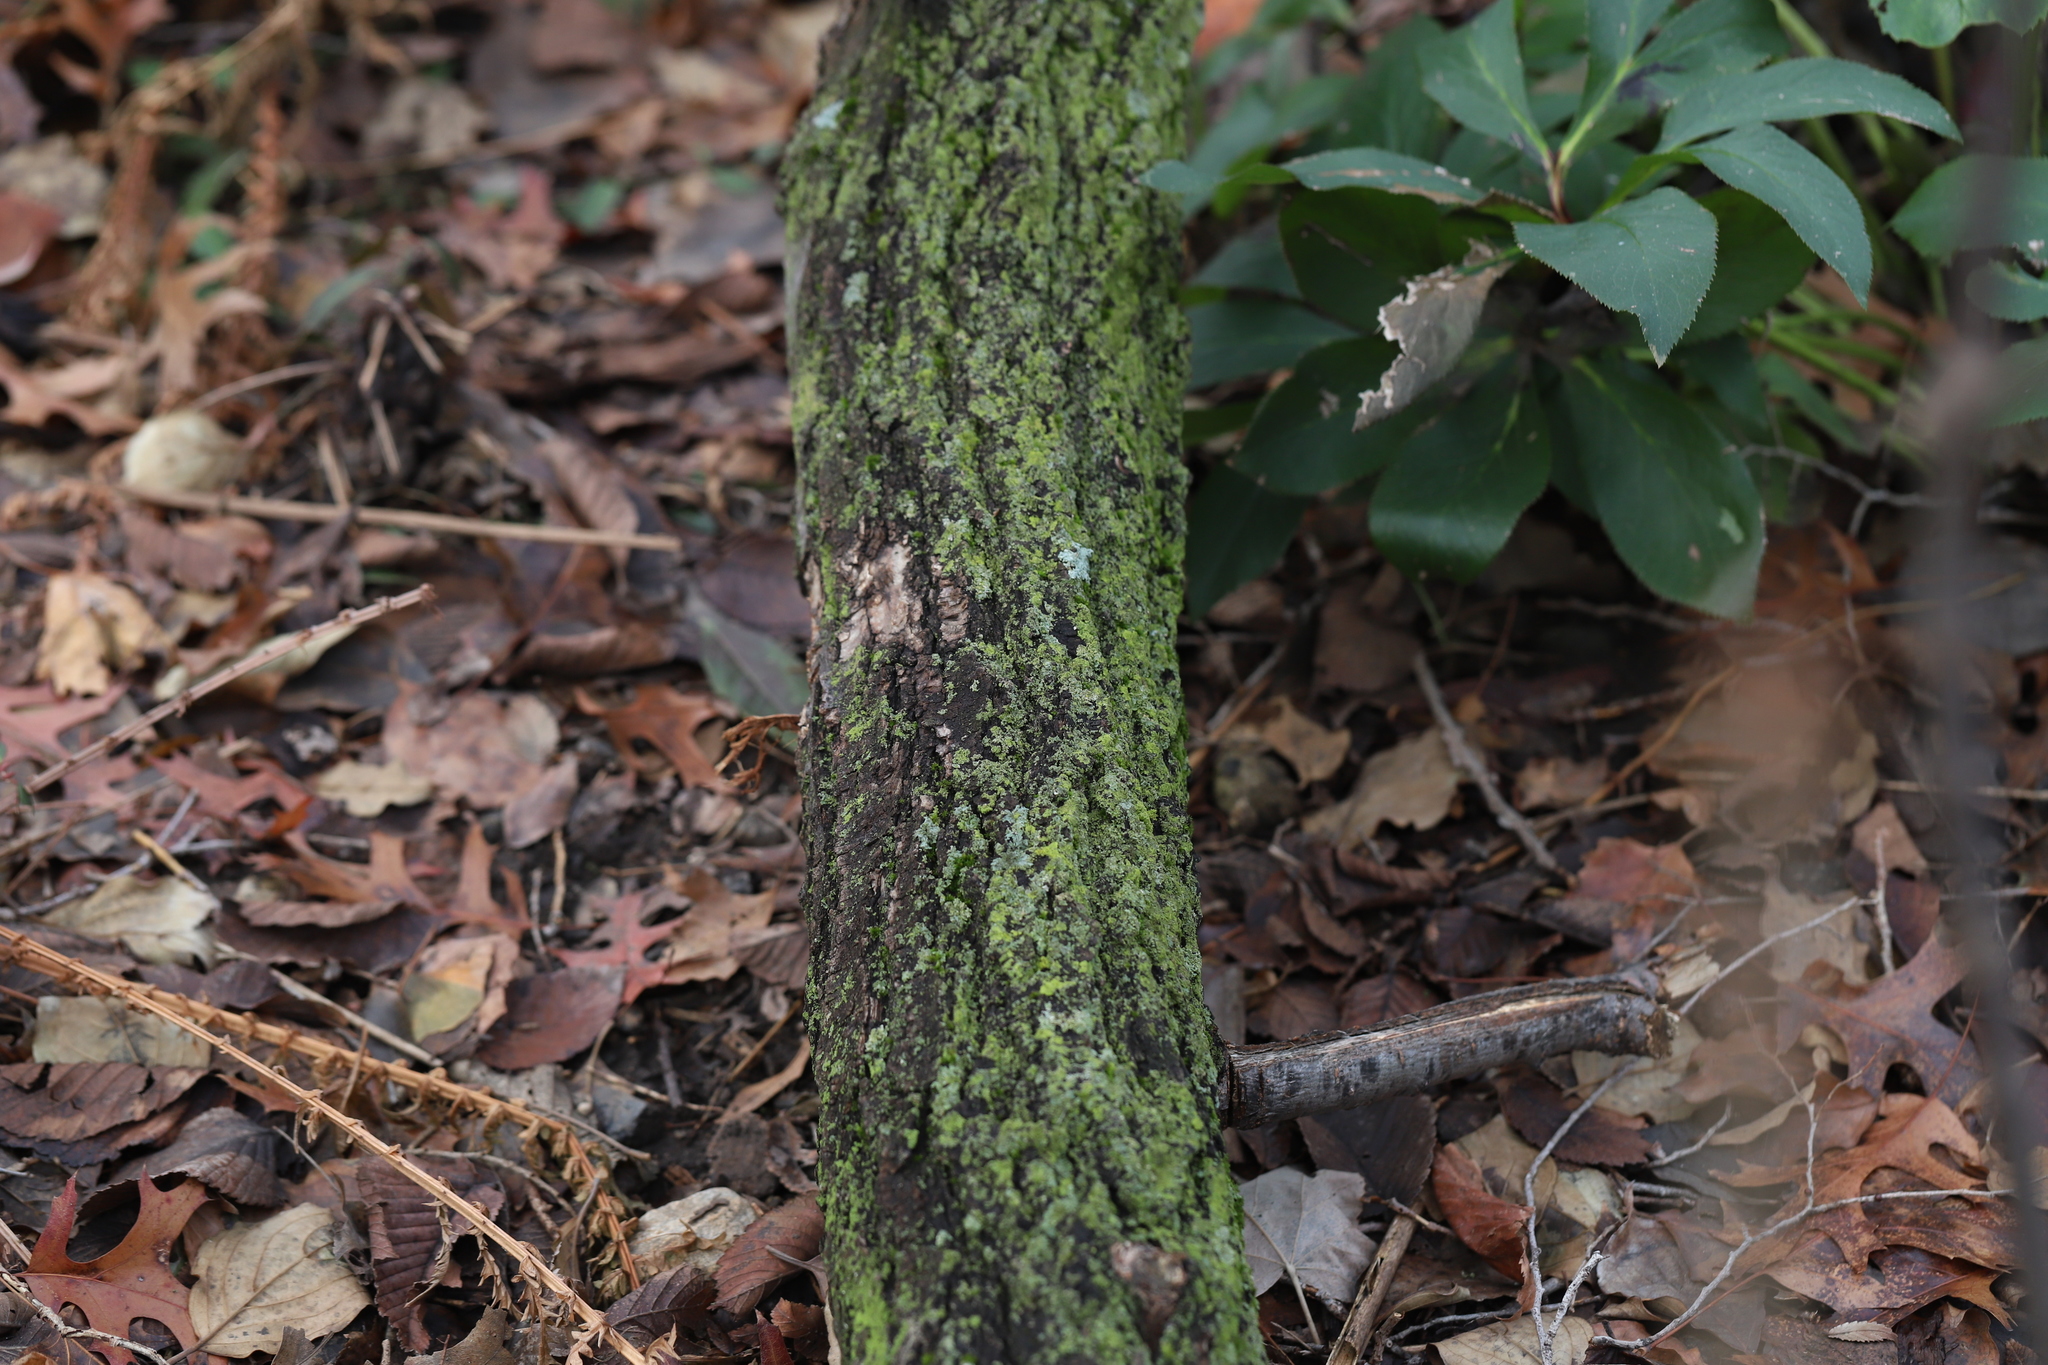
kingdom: Fungi
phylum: Ascomycota
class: Candelariomycetes
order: Candelariales
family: Candelariaceae
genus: Candelaria
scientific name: Candelaria concolor
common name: Candleflame lichen
